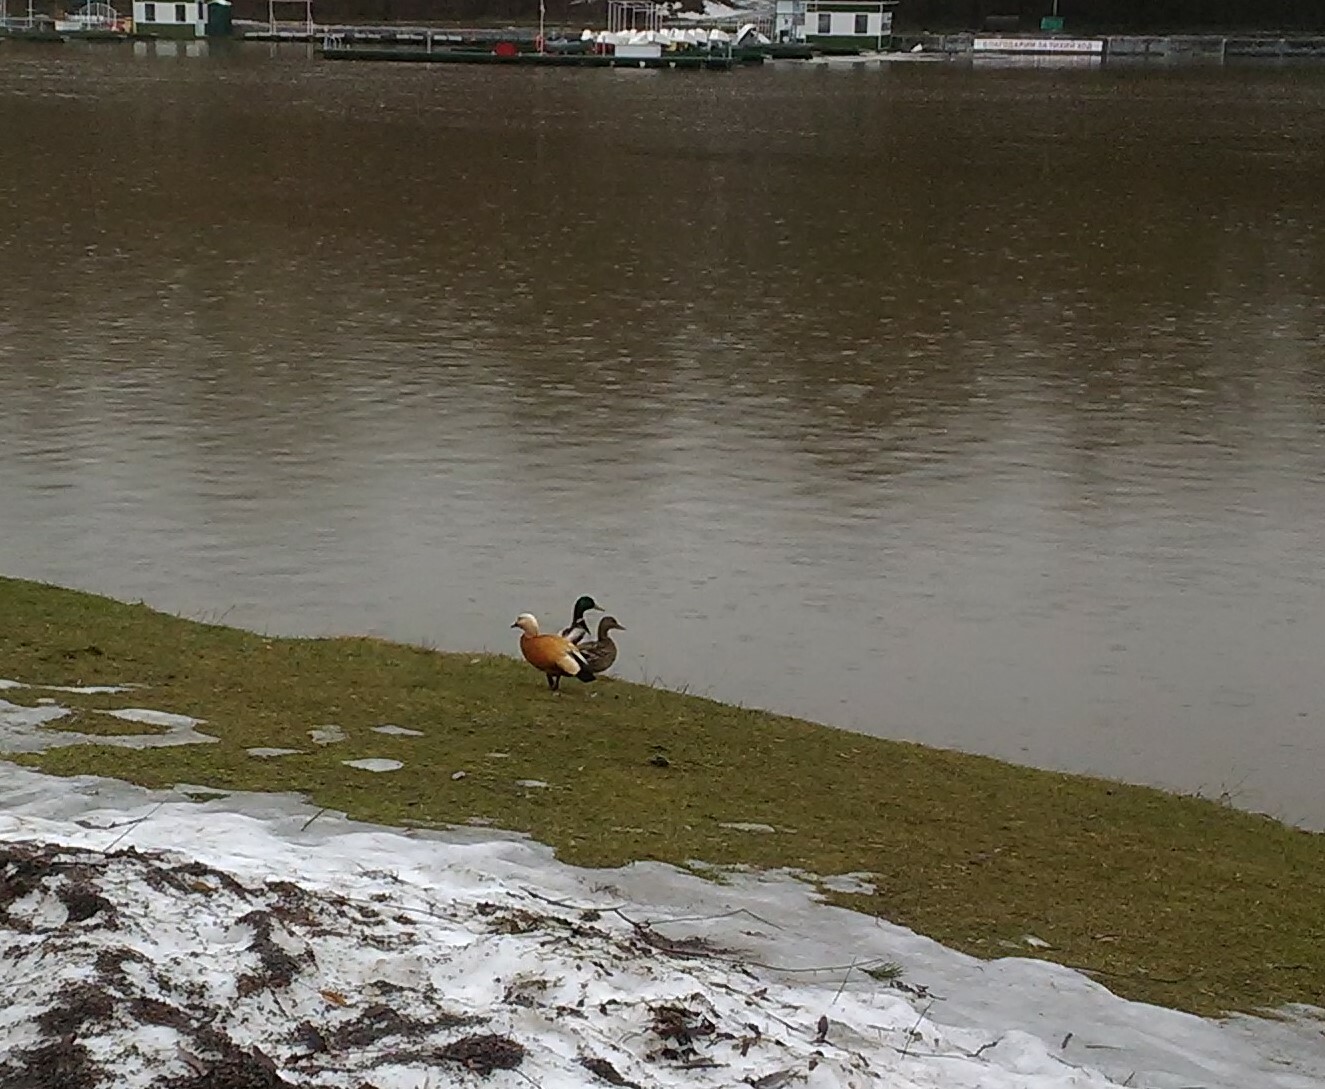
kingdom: Animalia
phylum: Chordata
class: Aves
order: Anseriformes
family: Anatidae
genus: Tadorna
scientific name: Tadorna ferruginea
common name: Ruddy shelduck
